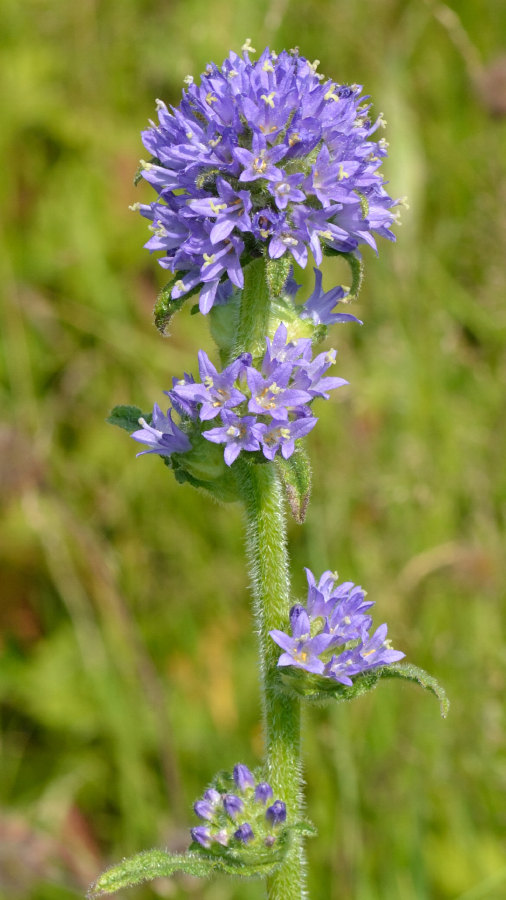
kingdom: Plantae
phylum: Tracheophyta
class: Magnoliopsida
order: Asterales
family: Campanulaceae
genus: Campanula
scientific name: Campanula cervicaria
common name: Bristly bellflower
